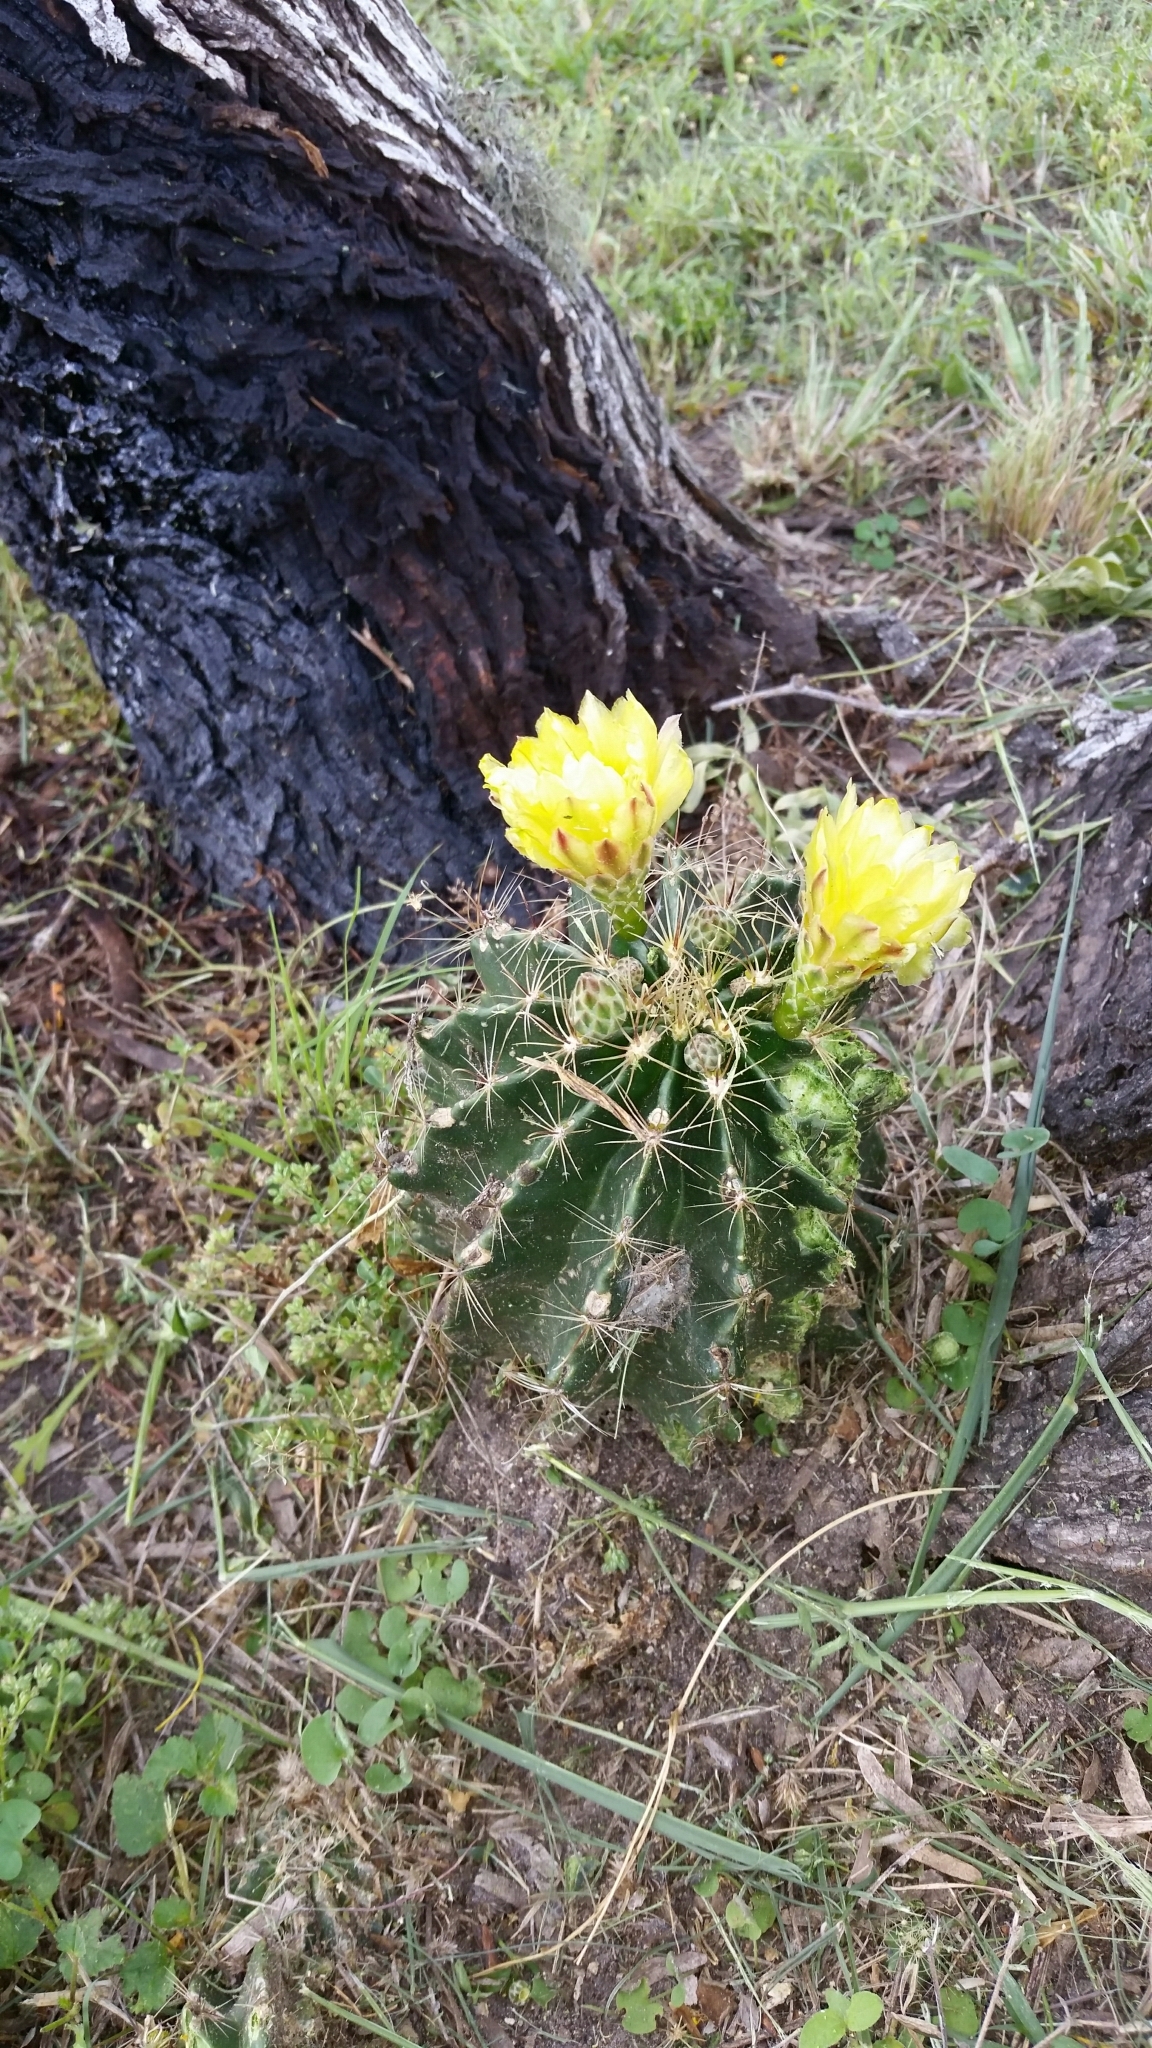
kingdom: Plantae
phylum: Tracheophyta
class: Magnoliopsida
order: Caryophyllales
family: Cactaceae
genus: Thelocactus
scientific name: Thelocactus setispinus
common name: Miniature barrel cactus
